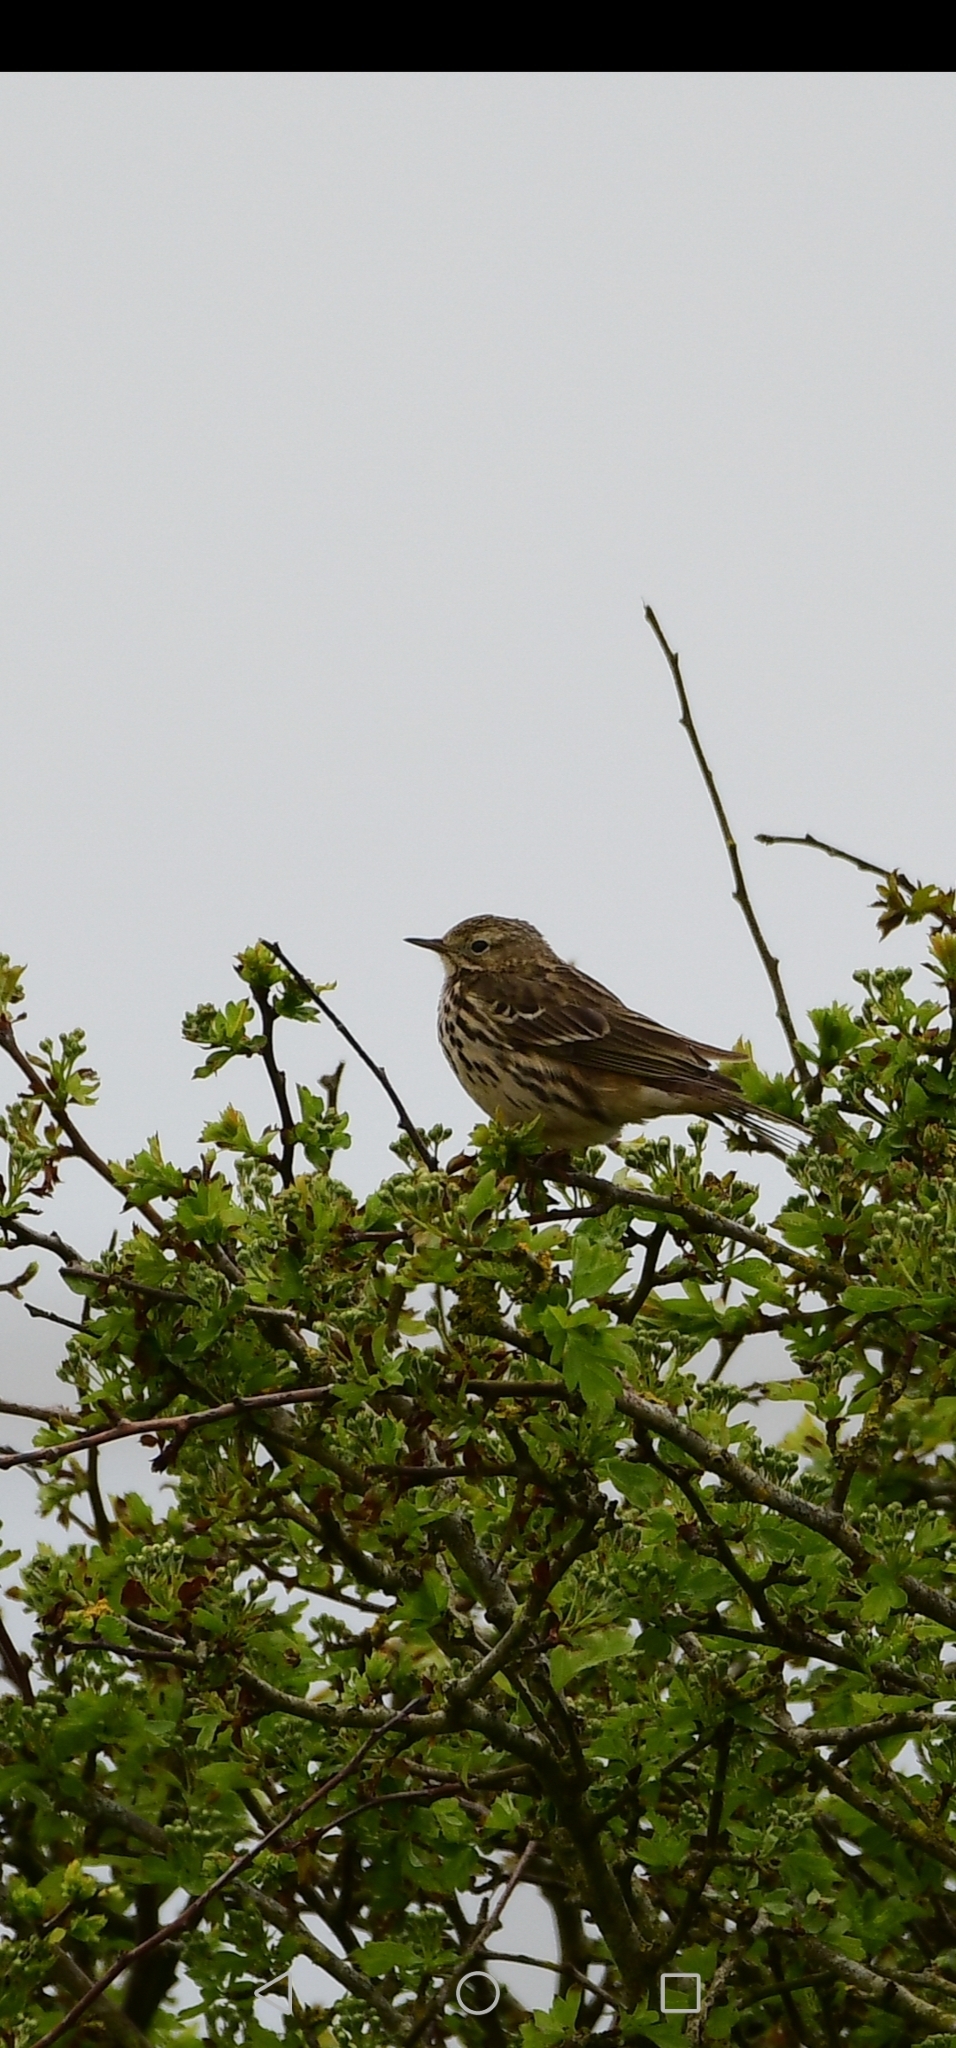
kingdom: Animalia
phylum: Chordata
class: Aves
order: Passeriformes
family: Motacillidae
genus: Anthus
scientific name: Anthus pratensis
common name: Meadow pipit
